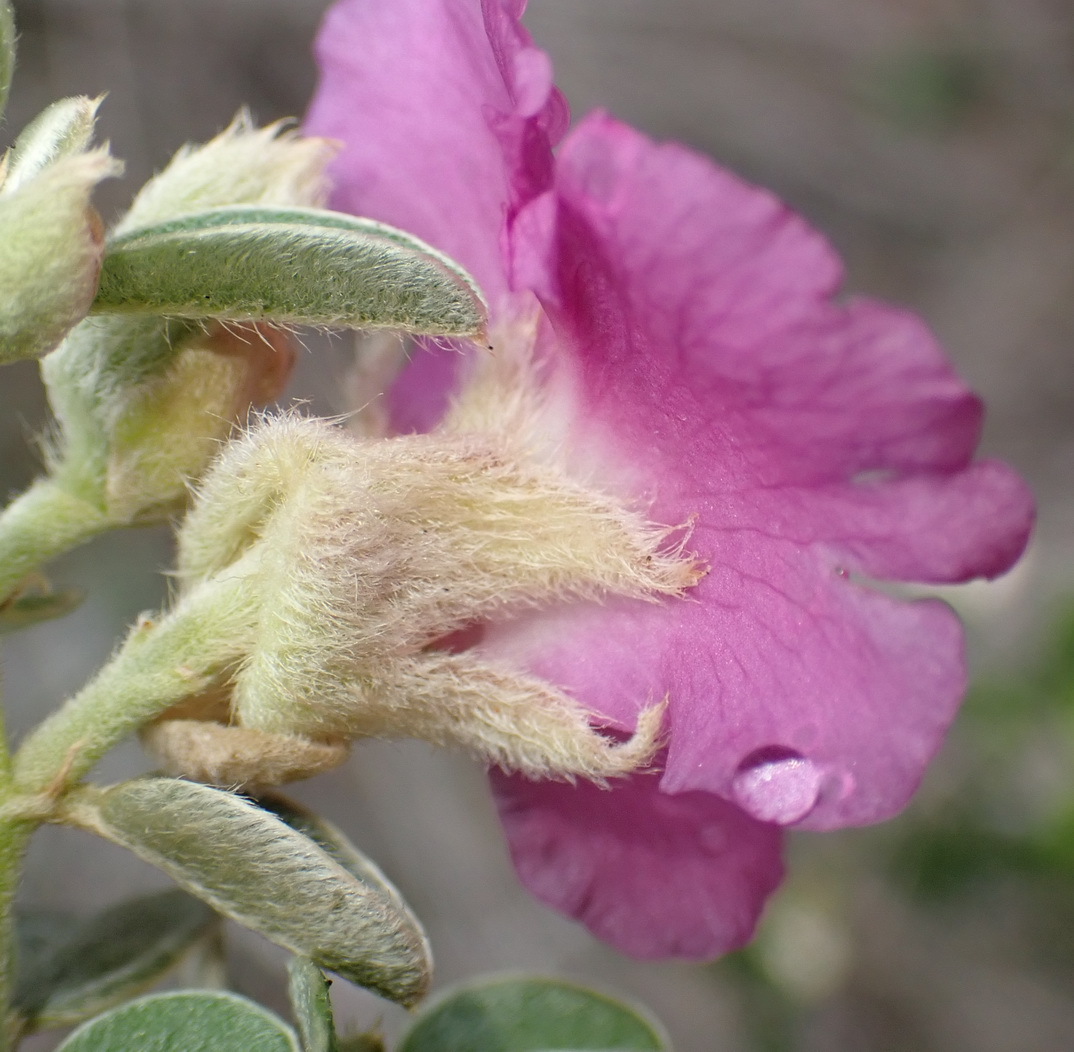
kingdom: Plantae
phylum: Tracheophyta
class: Magnoliopsida
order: Fabales
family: Fabaceae
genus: Podalyria
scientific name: Podalyria burchellii
